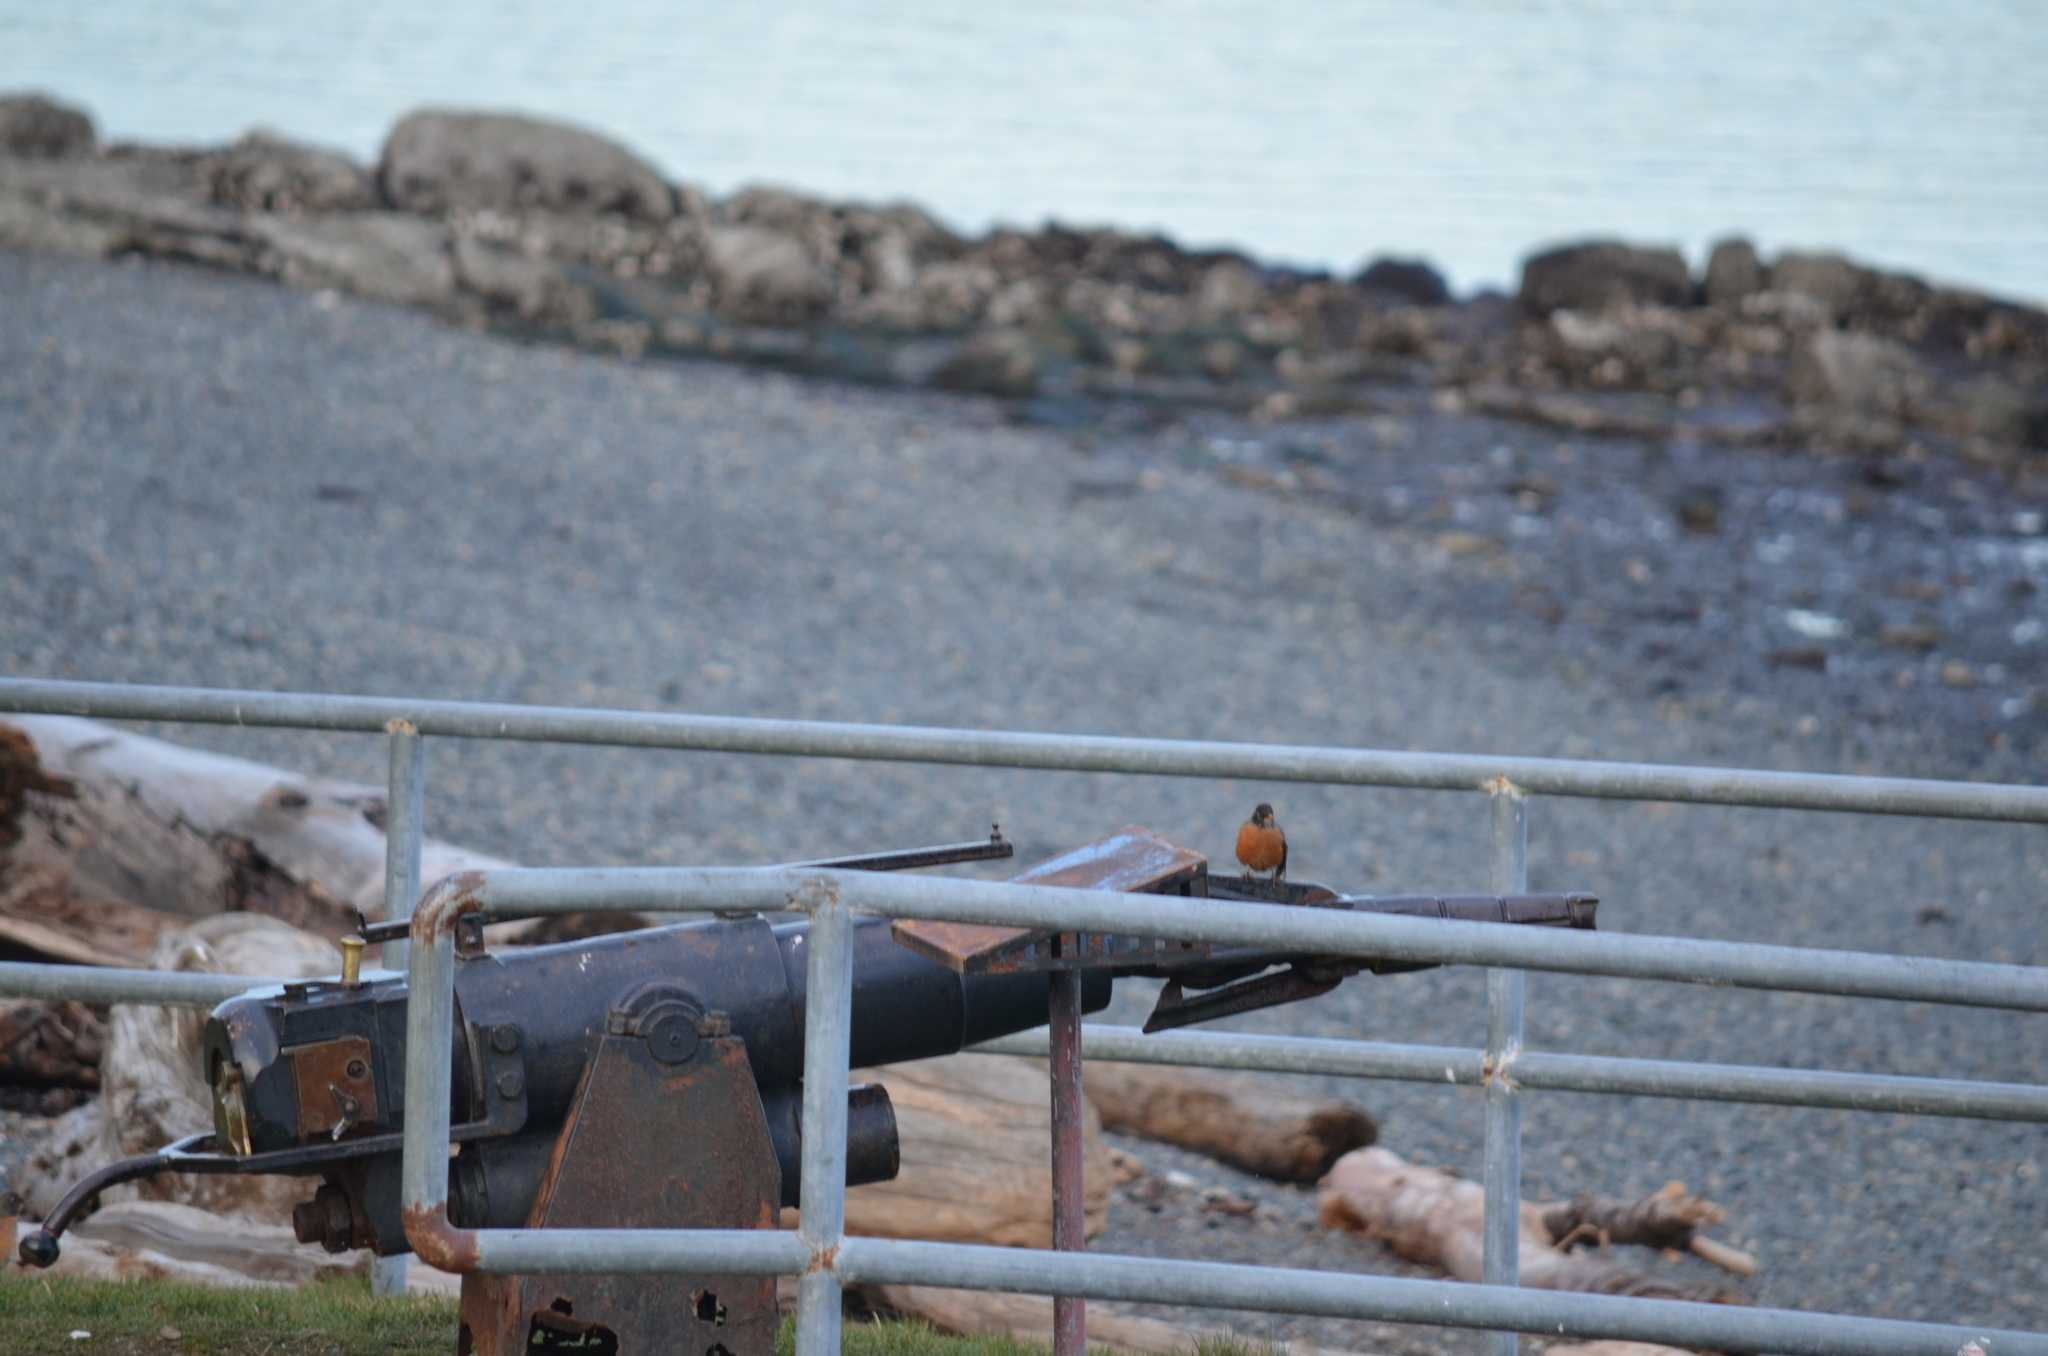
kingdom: Animalia
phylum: Chordata
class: Aves
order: Passeriformes
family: Turdidae
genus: Turdus
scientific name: Turdus migratorius
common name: American robin
